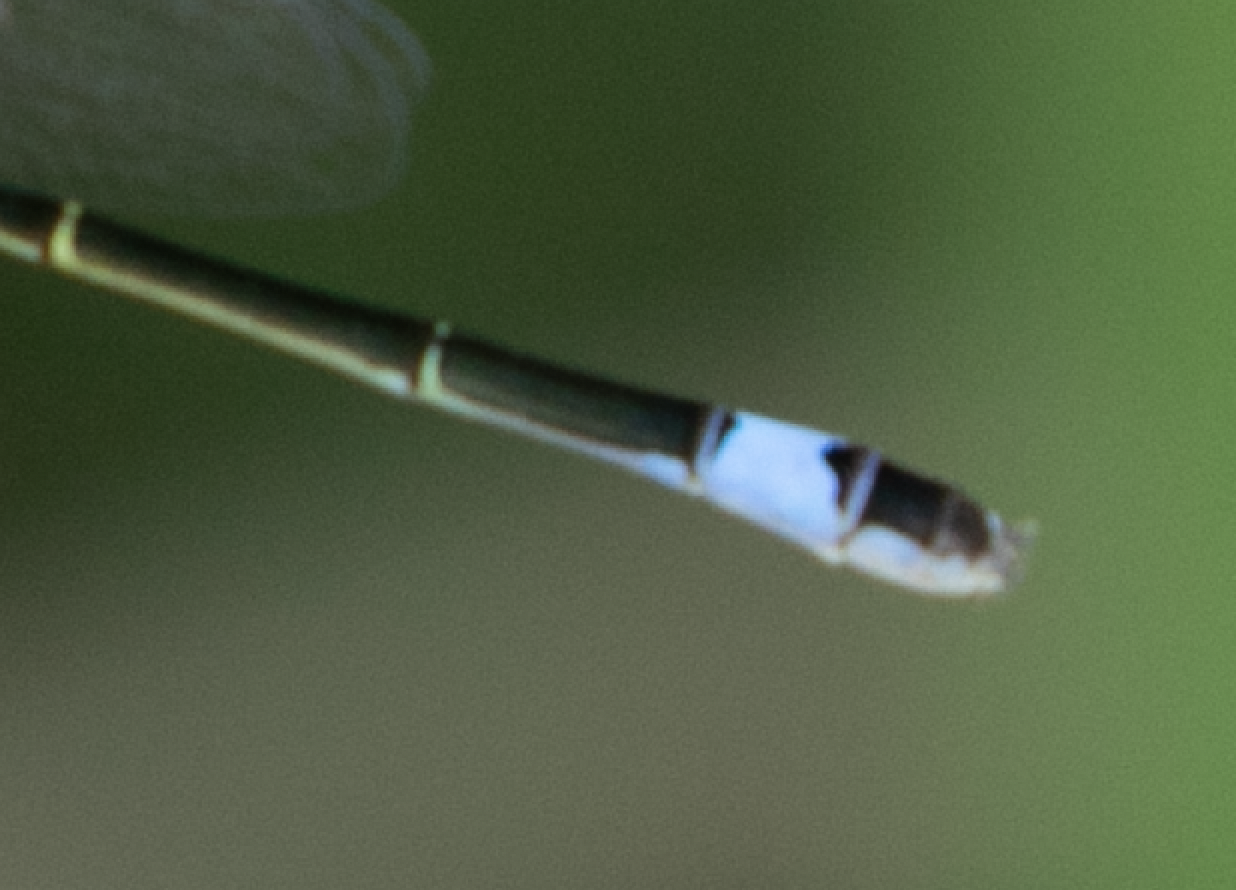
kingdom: Animalia
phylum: Arthropoda
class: Insecta
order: Odonata
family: Coenagrionidae
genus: Ischnura
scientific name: Ischnura elegans
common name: Blue-tailed damselfly
